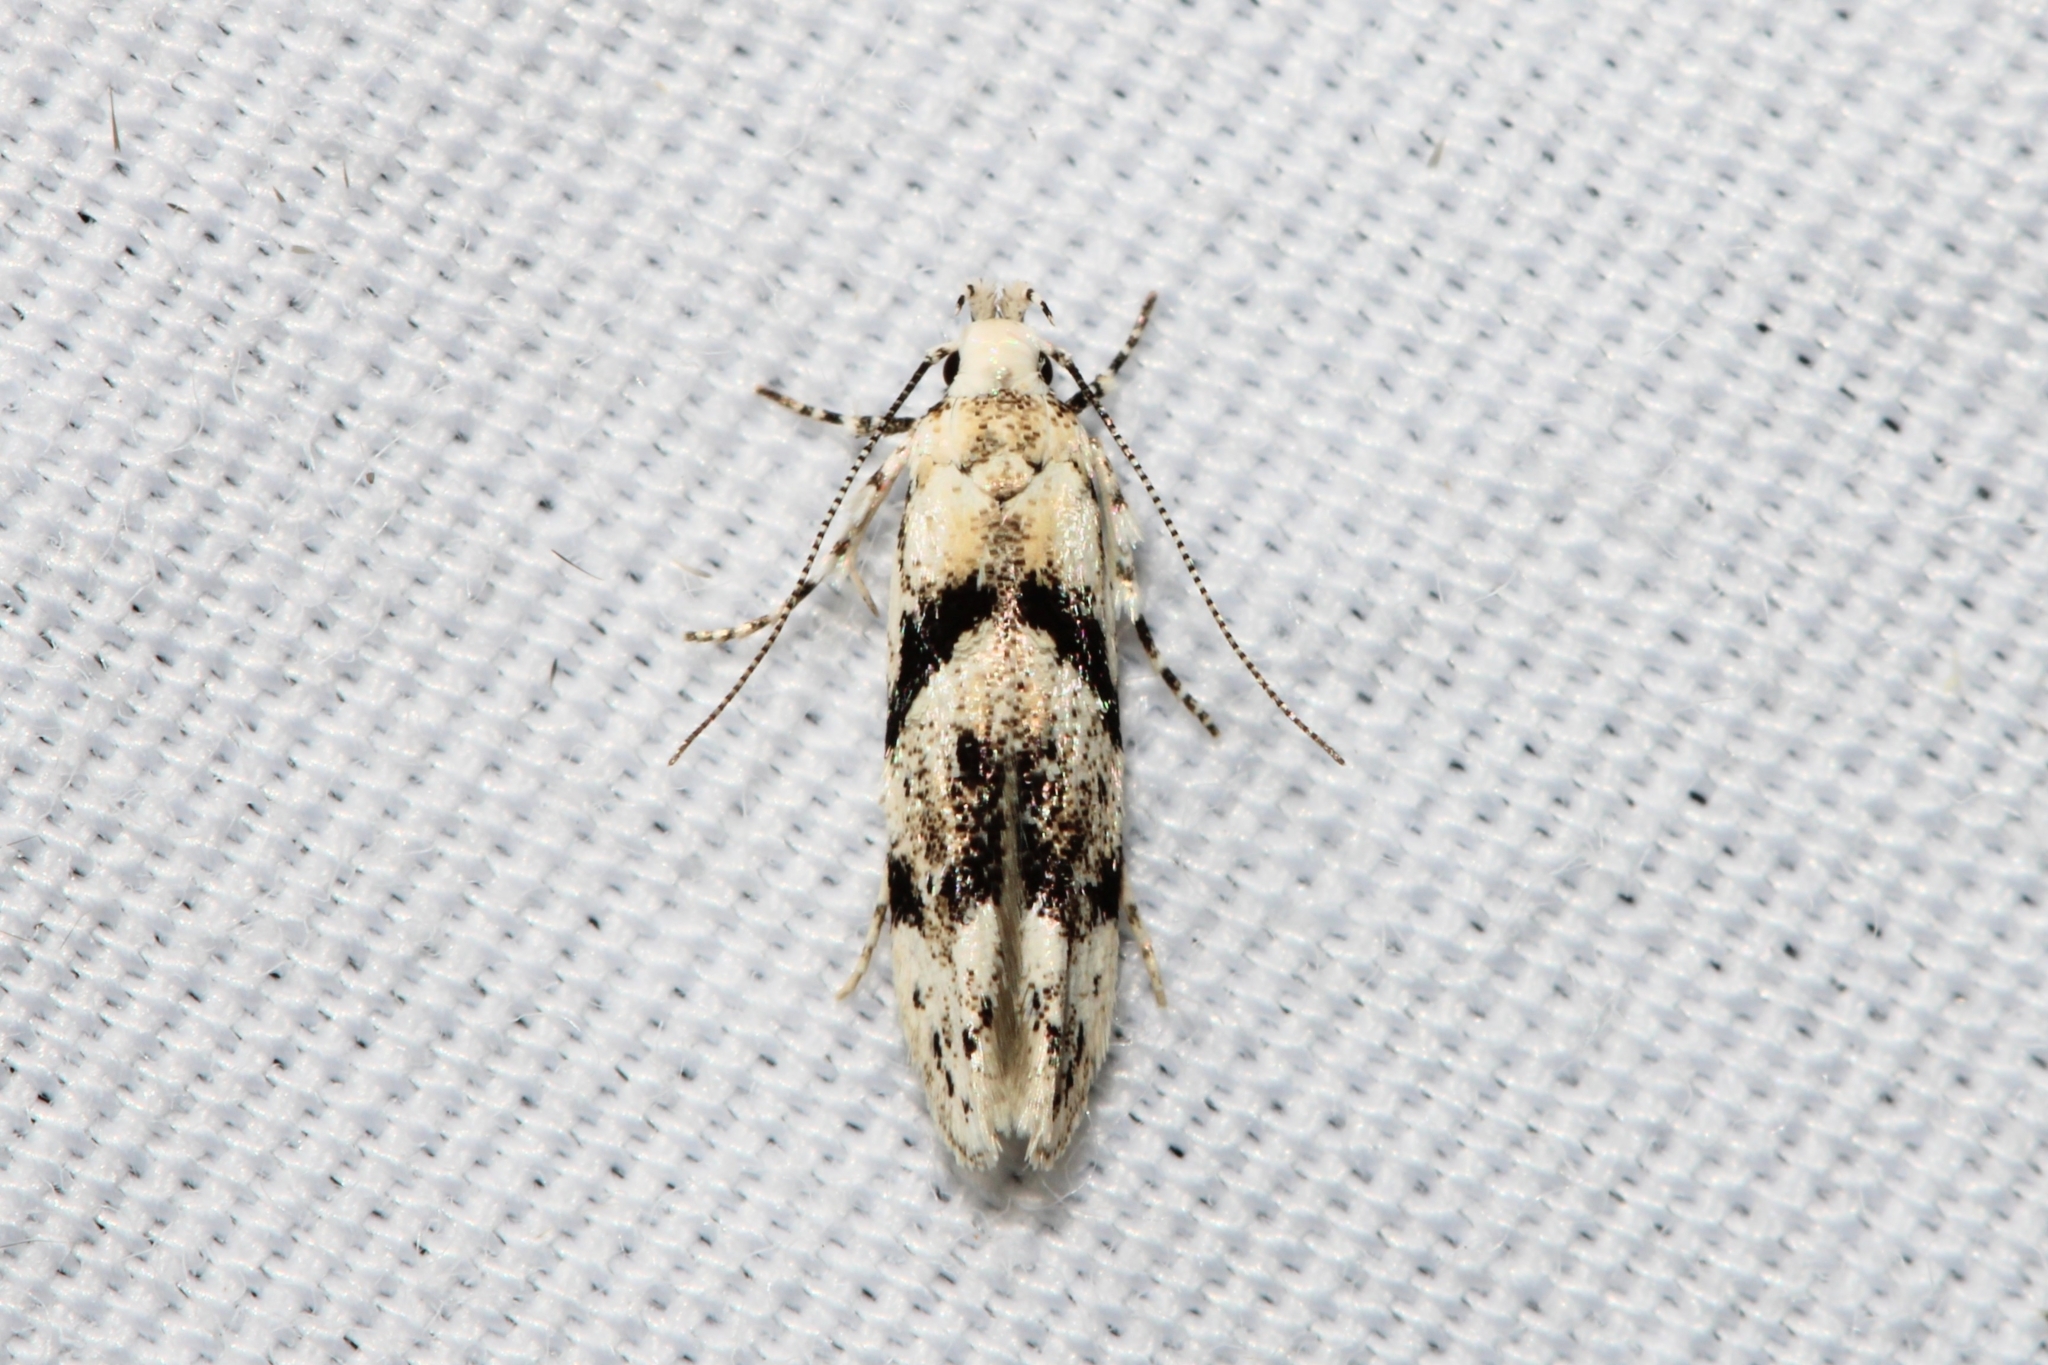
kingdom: Animalia
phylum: Arthropoda
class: Insecta
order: Lepidoptera
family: Gelechiidae
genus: Arogalea
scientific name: Arogalea cristifasciella
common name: White stripe-backed moth
